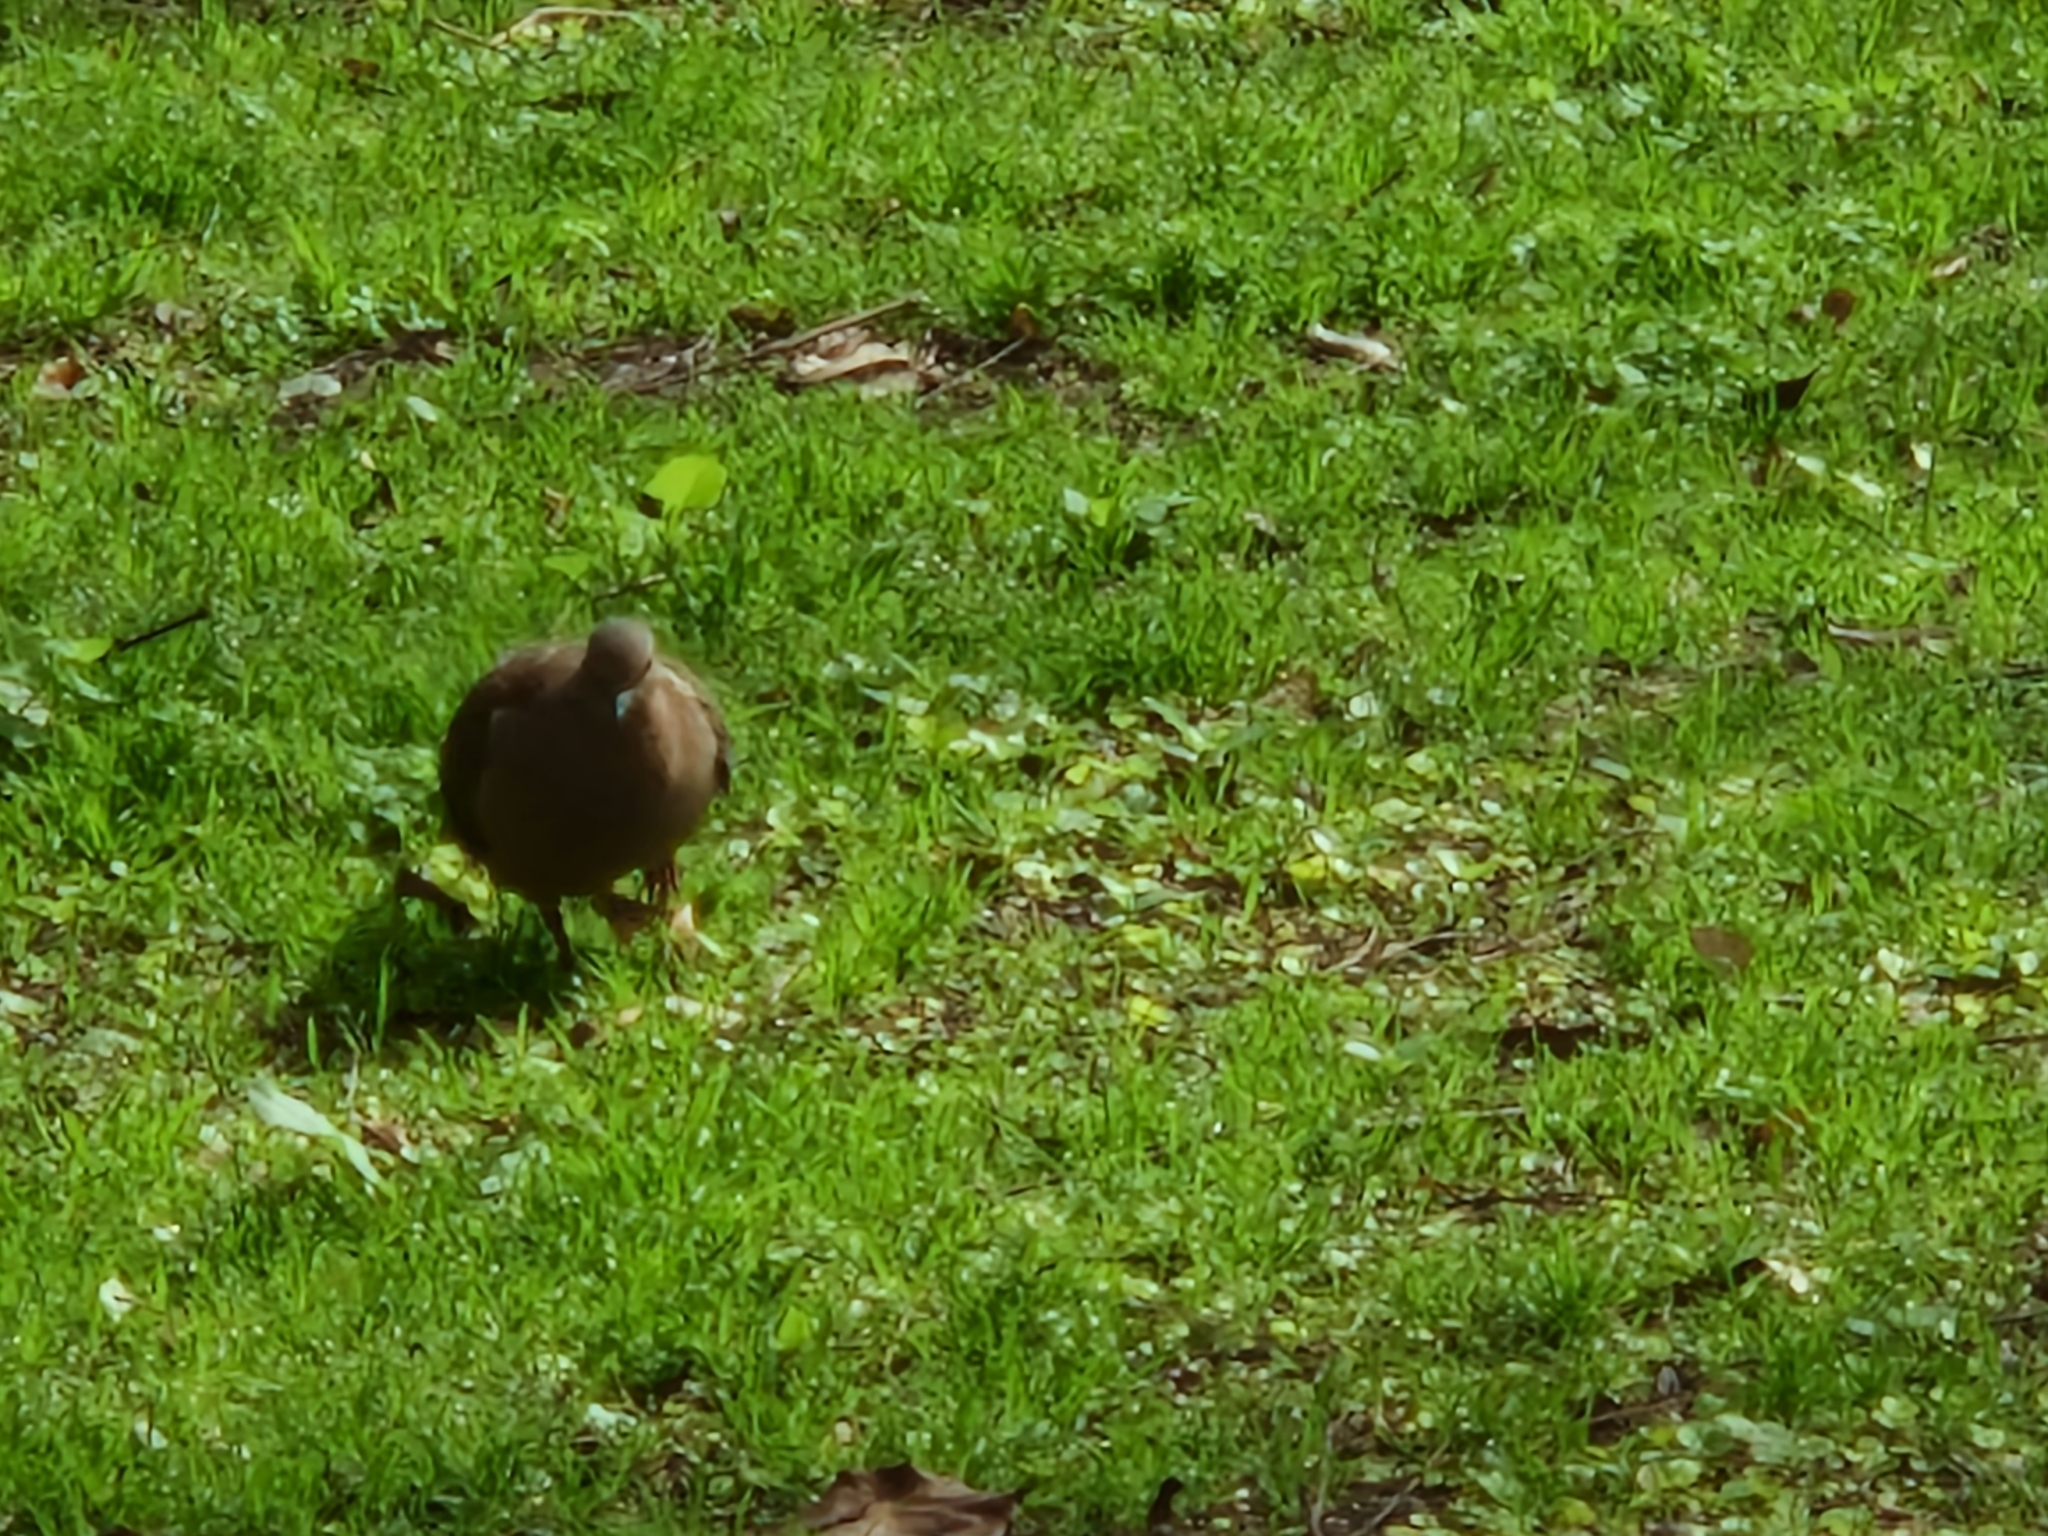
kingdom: Animalia
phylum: Chordata
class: Aves
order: Columbiformes
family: Columbidae
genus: Zenaida
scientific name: Zenaida auriculata
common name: Eared dove
